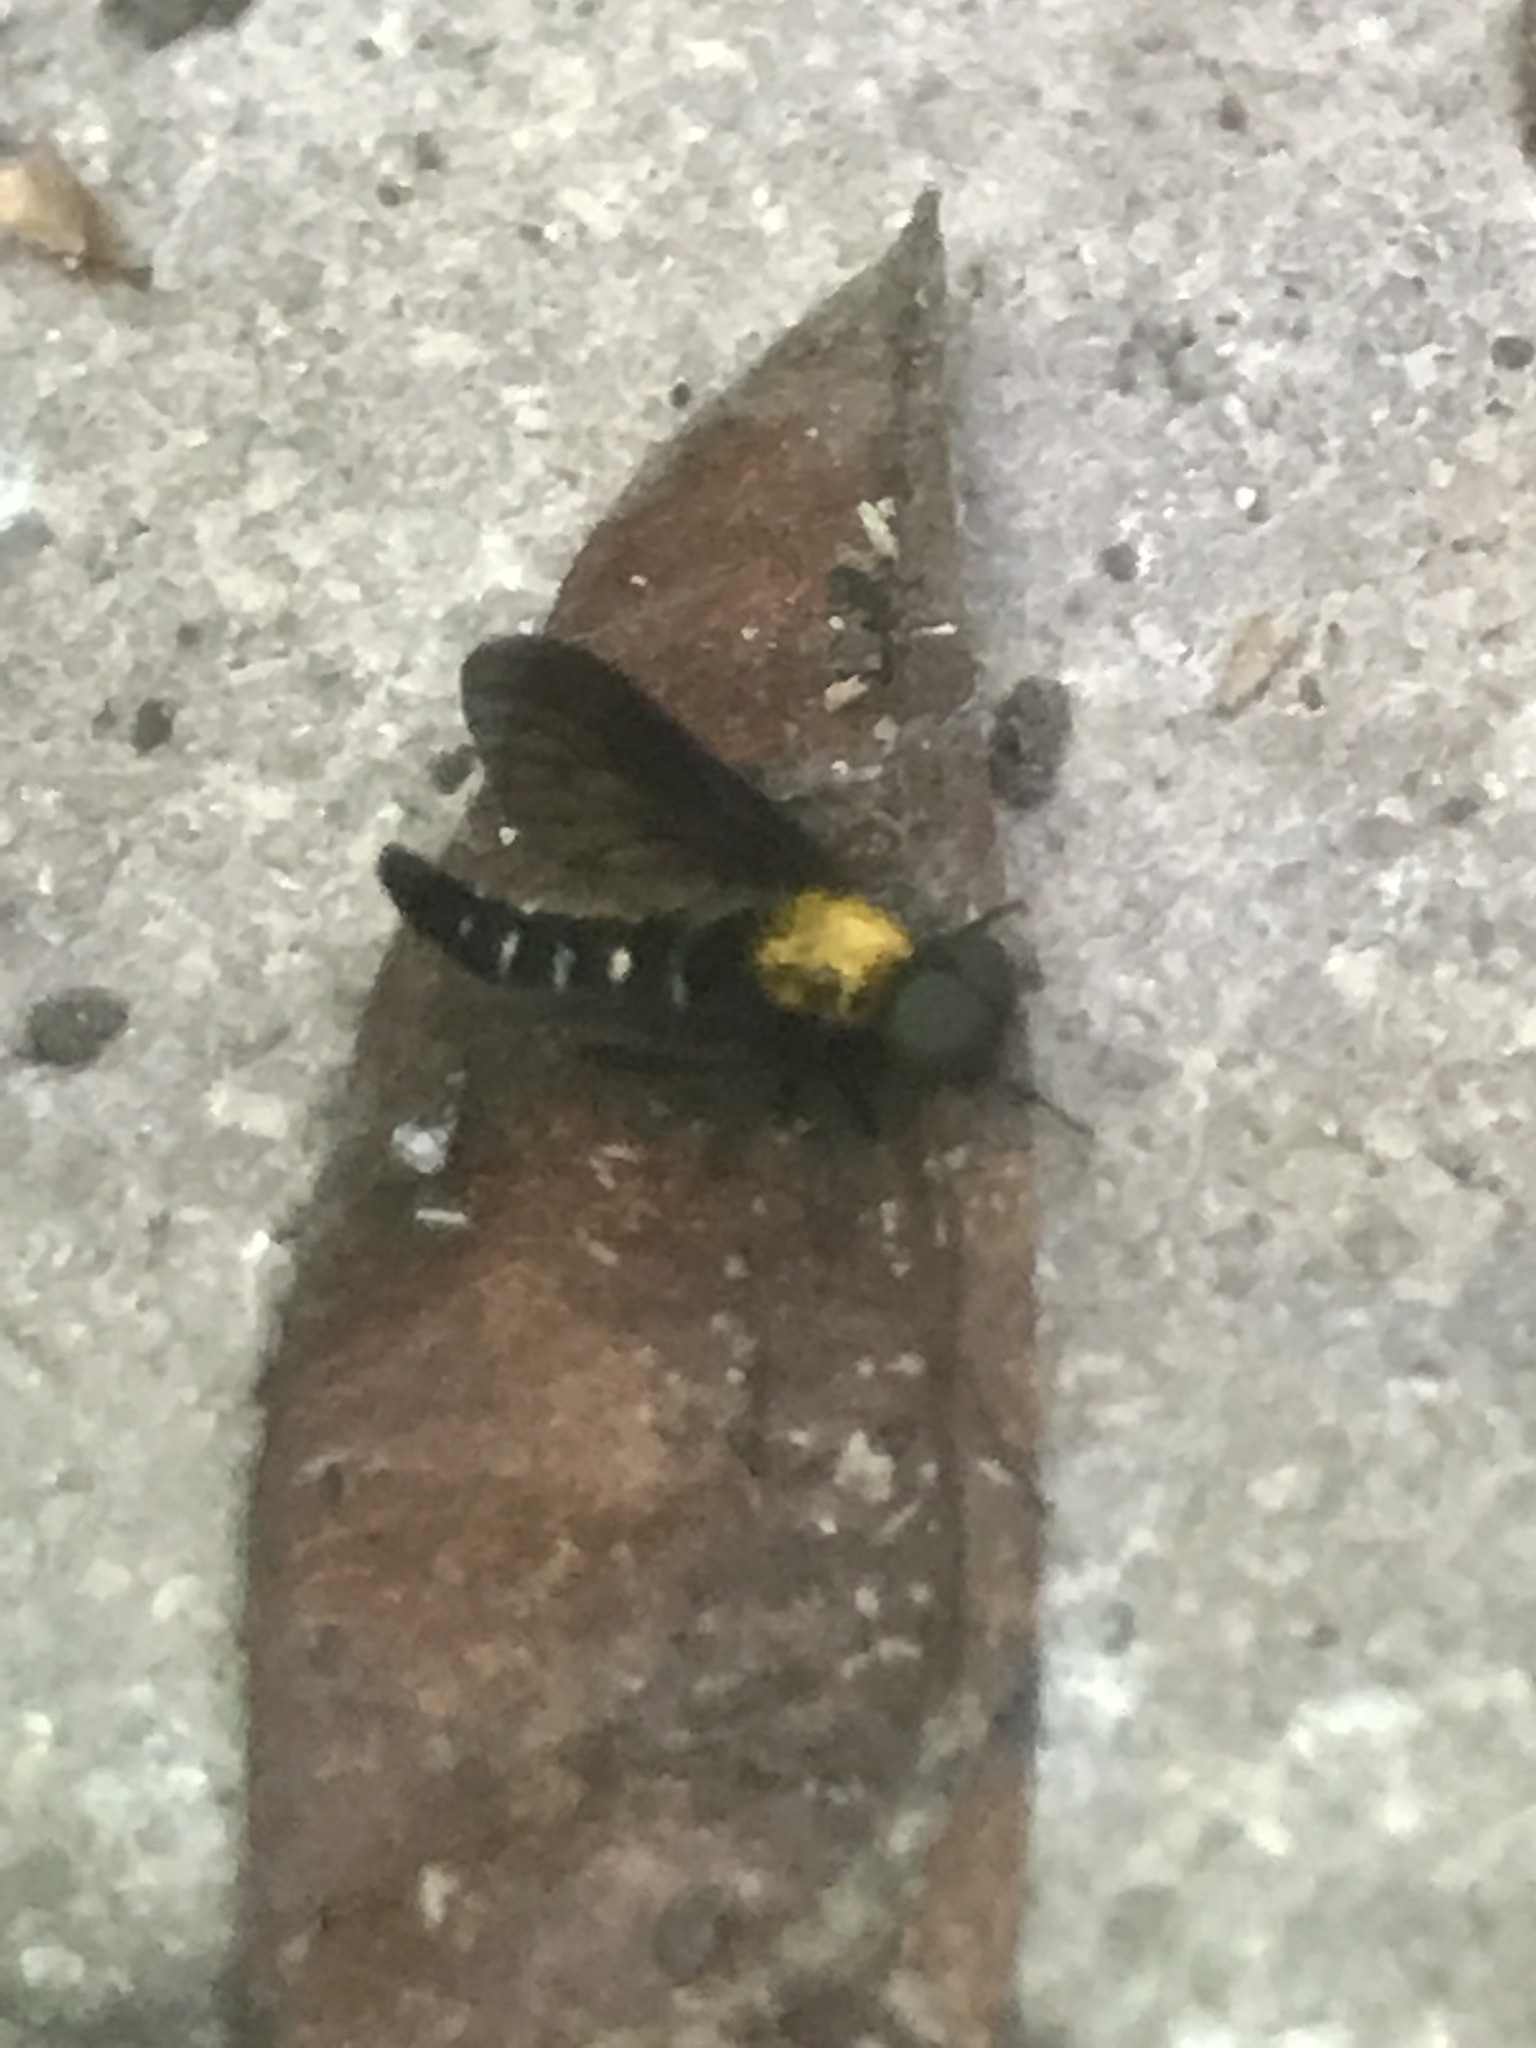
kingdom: Animalia
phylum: Arthropoda
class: Insecta
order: Diptera
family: Rhagionidae
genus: Chrysopilus
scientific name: Chrysopilus thoracicus
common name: Golden-backed snipe fly
